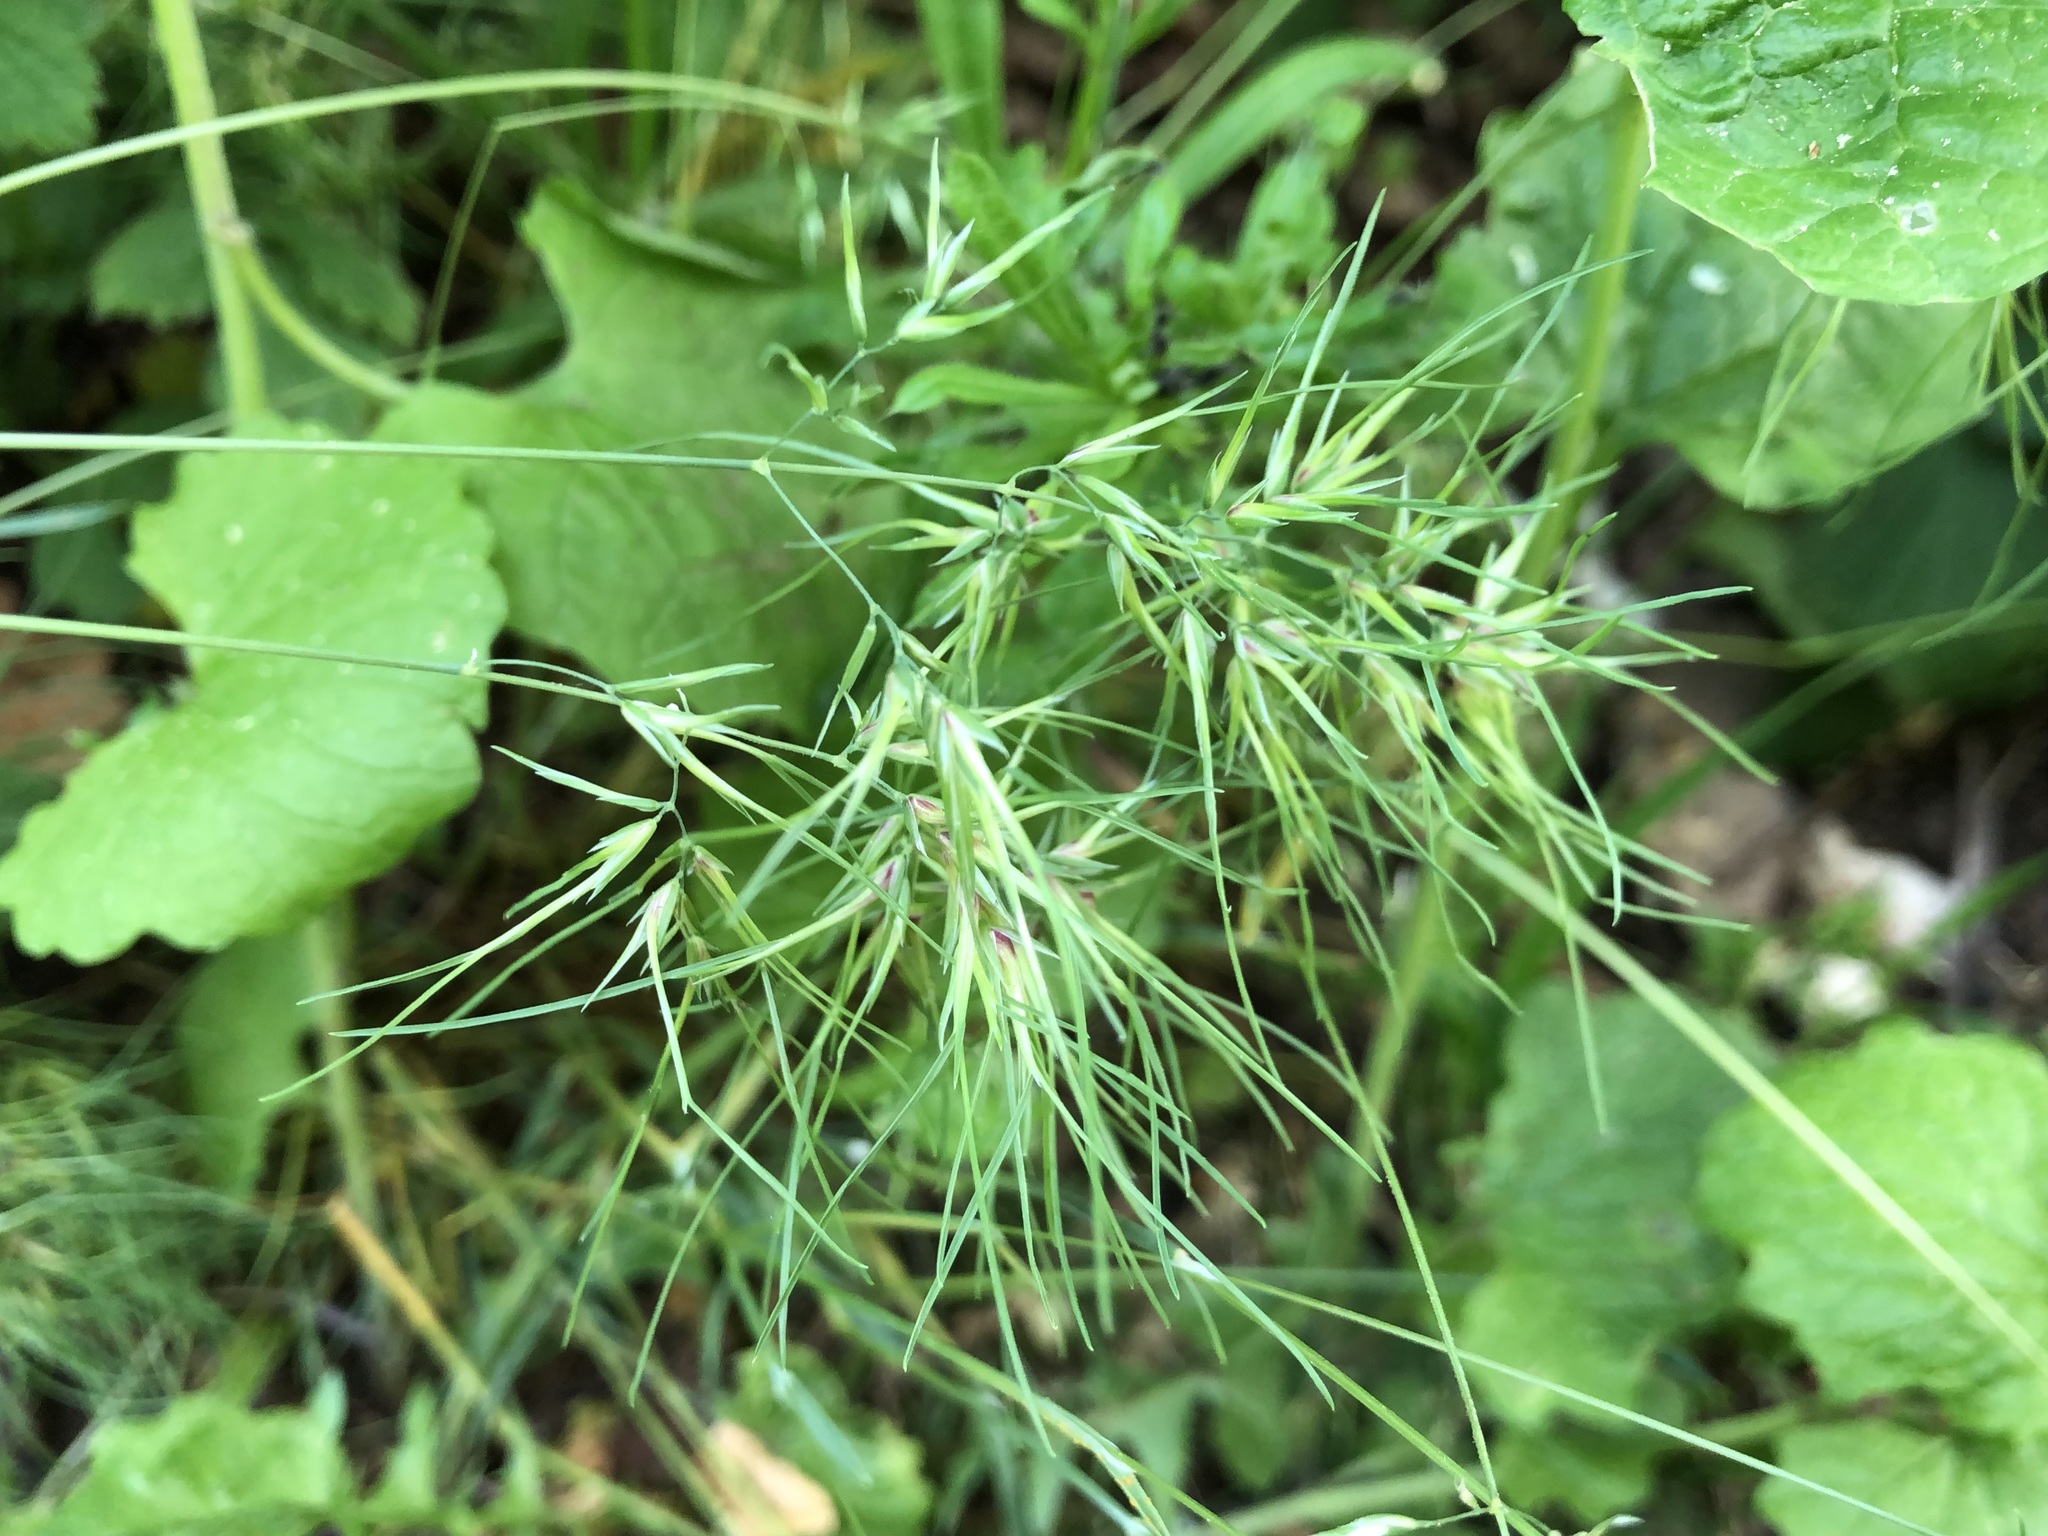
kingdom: Plantae
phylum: Tracheophyta
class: Liliopsida
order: Poales
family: Poaceae
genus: Poa
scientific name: Poa bulbosa
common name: Bulbous bluegrass
